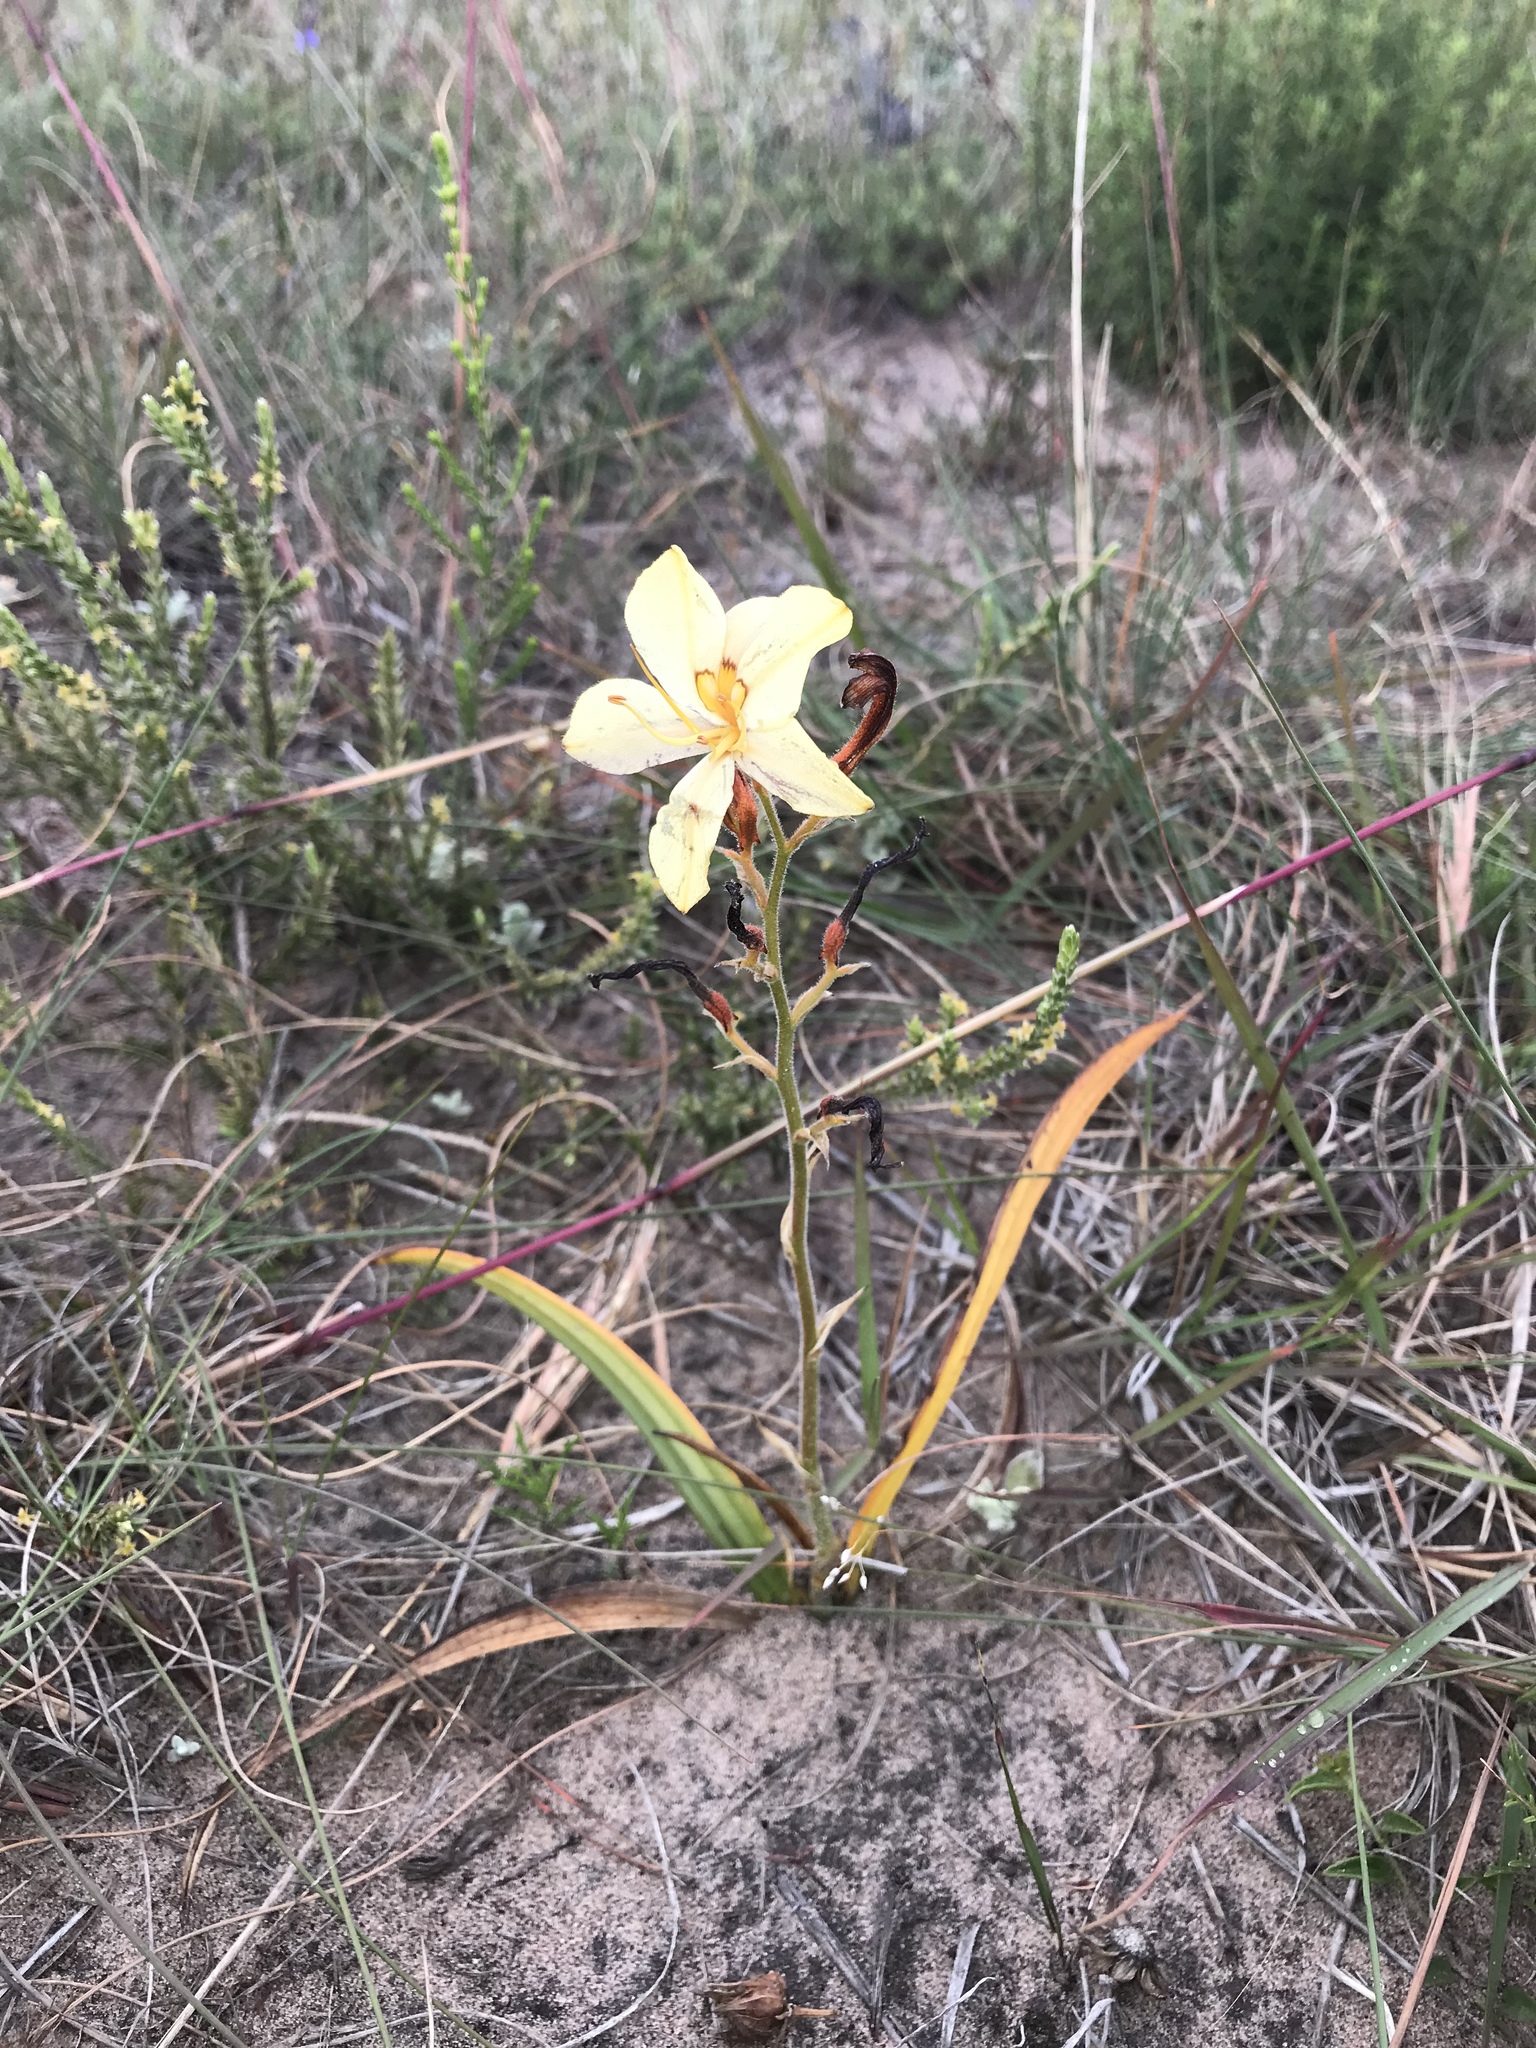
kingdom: Plantae
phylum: Tracheophyta
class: Liliopsida
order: Commelinales
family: Haemodoraceae
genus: Wachendorfia
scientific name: Wachendorfia paniculata
